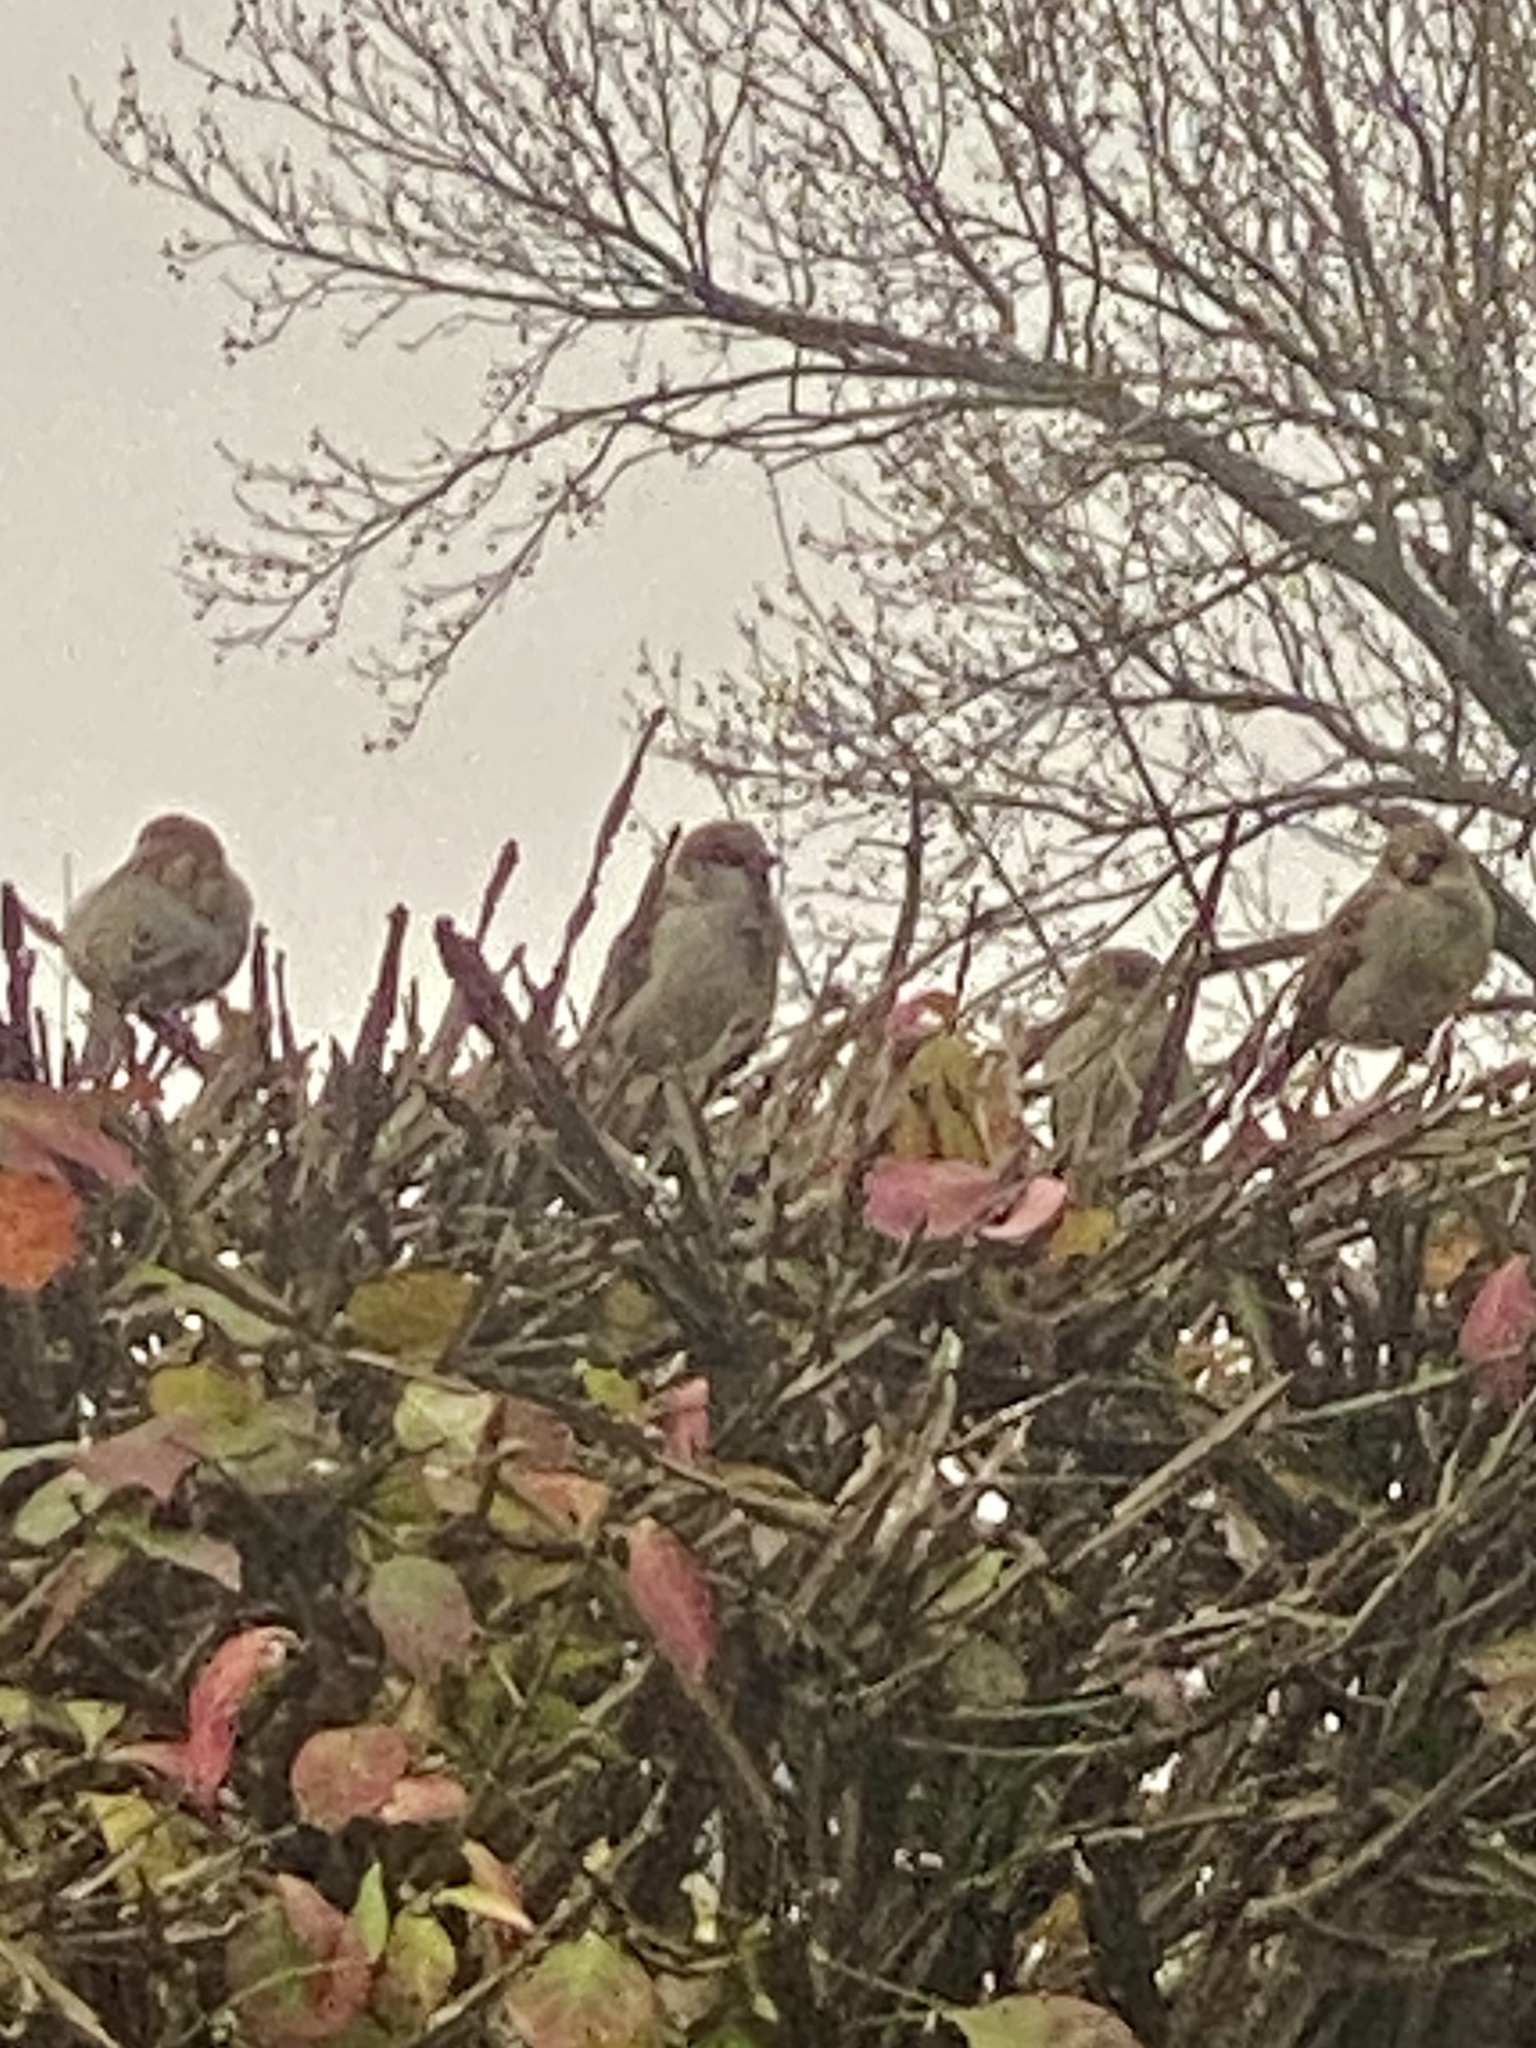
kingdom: Animalia
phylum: Chordata
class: Aves
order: Passeriformes
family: Passeridae
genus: Passer
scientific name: Passer domesticus
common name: House sparrow
